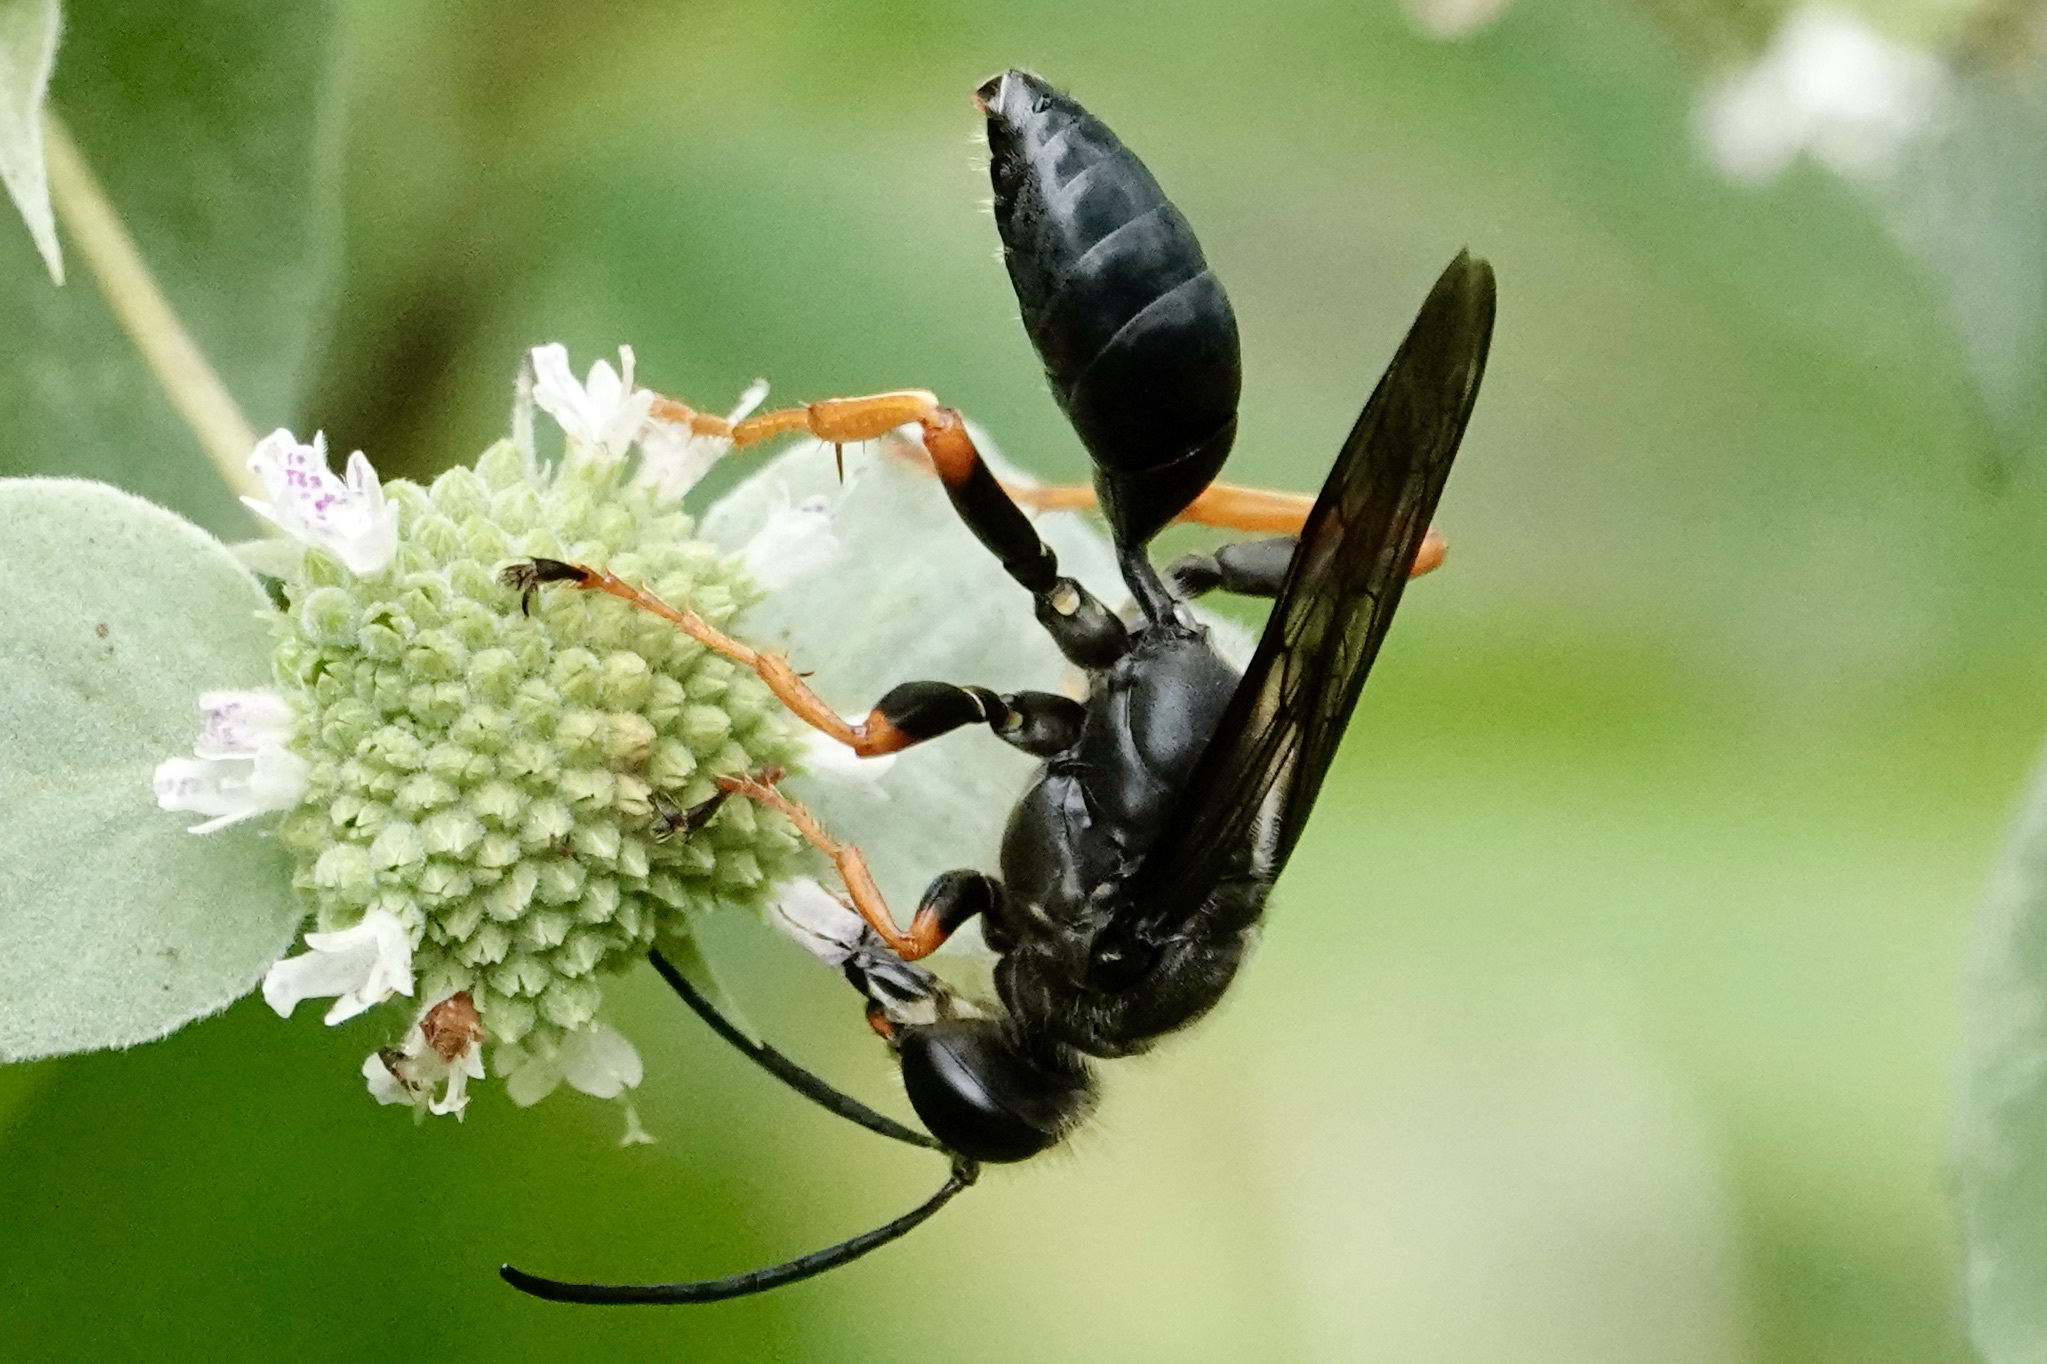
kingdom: Animalia
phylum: Arthropoda
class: Insecta
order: Hymenoptera
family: Sphecidae
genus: Sphex
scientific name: Sphex nudus
